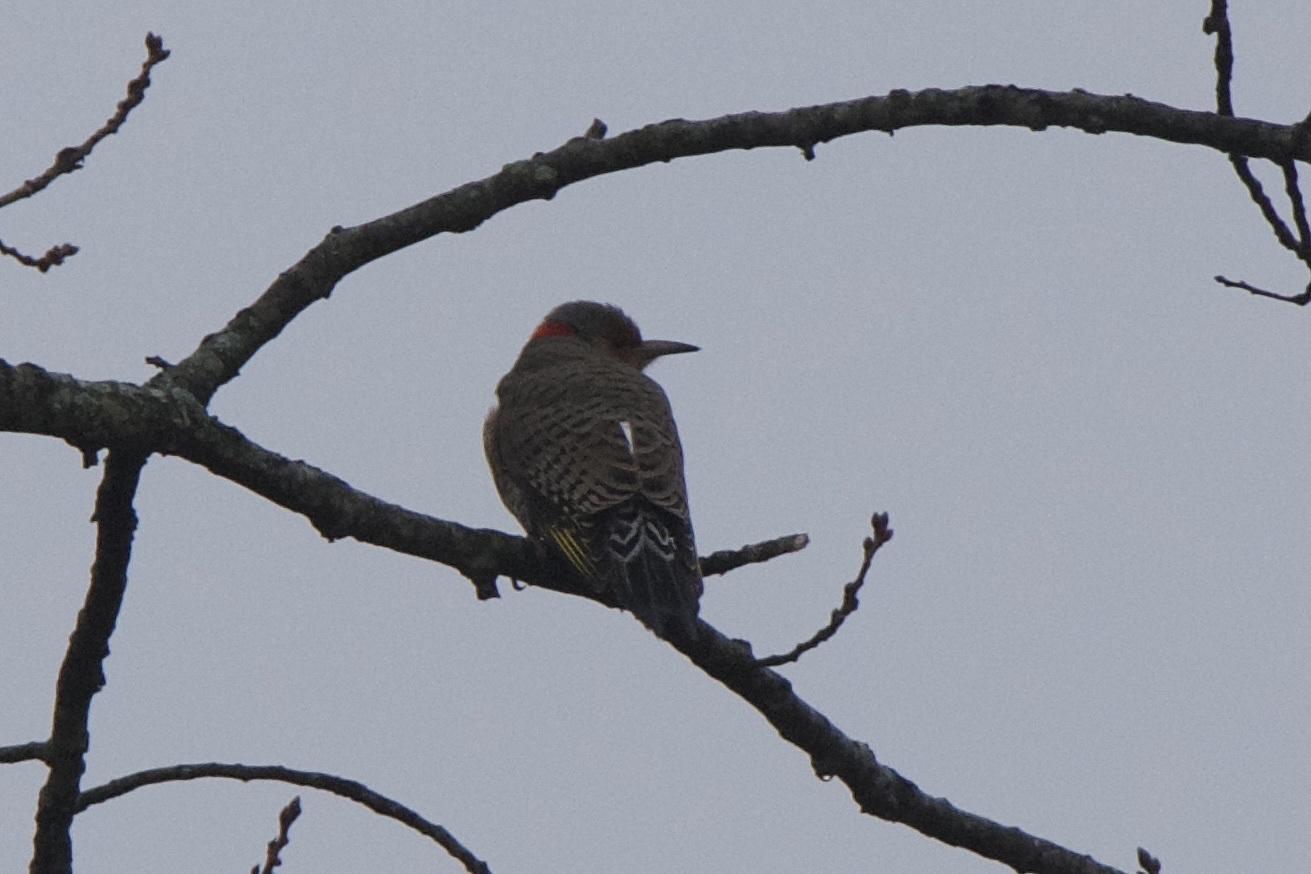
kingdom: Animalia
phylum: Chordata
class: Aves
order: Piciformes
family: Picidae
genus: Colaptes
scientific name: Colaptes auratus
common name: Northern flicker
